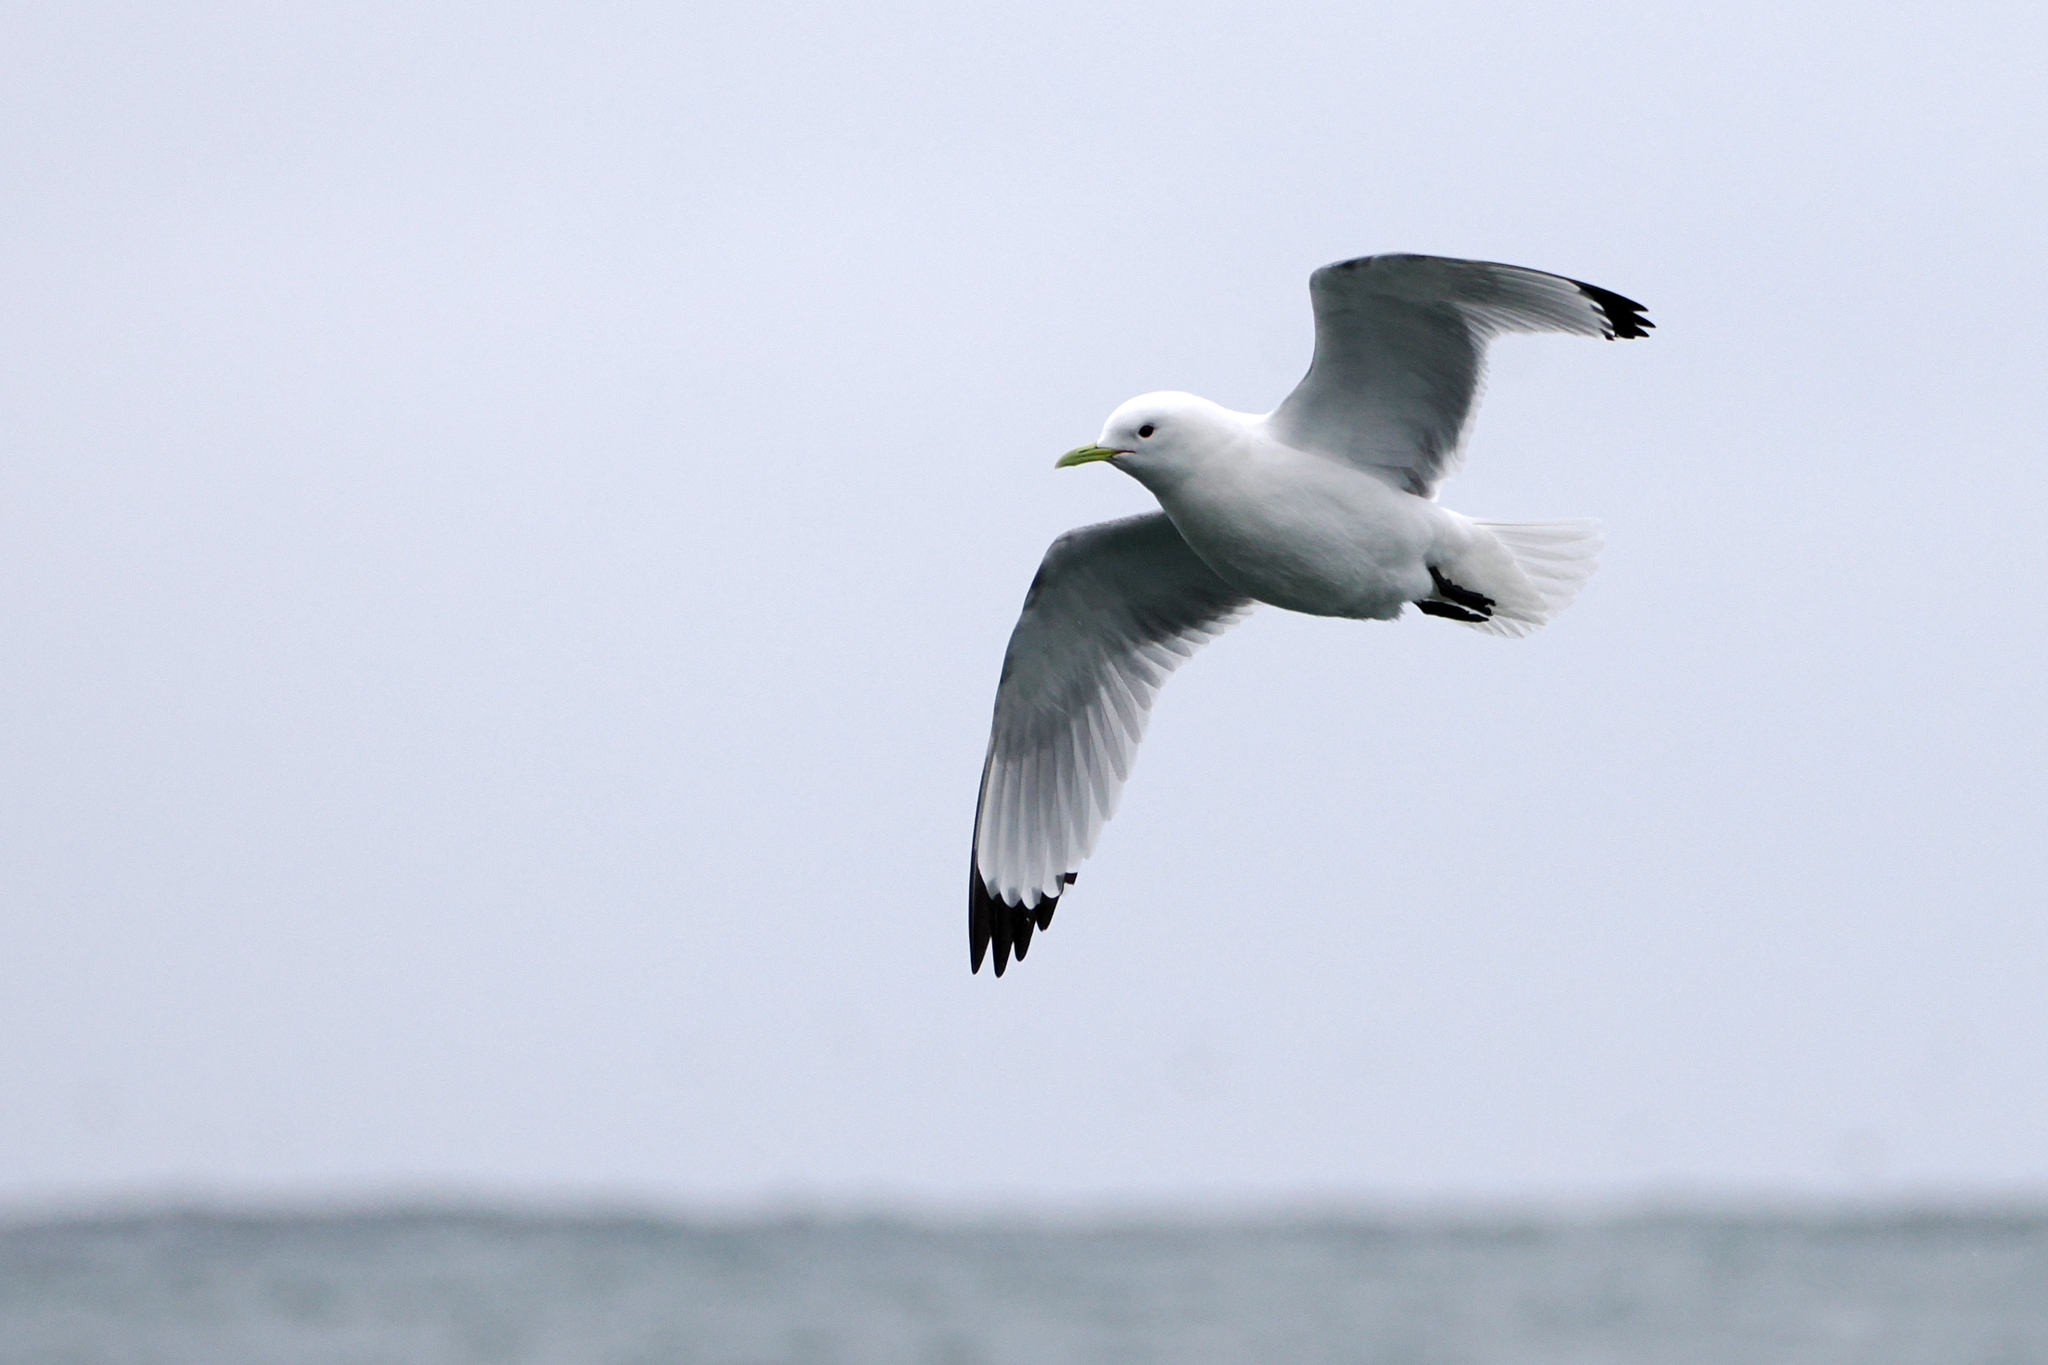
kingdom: Animalia
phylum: Chordata
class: Aves
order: Charadriiformes
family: Laridae
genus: Rissa
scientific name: Rissa tridactyla
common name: Black-legged kittiwake
